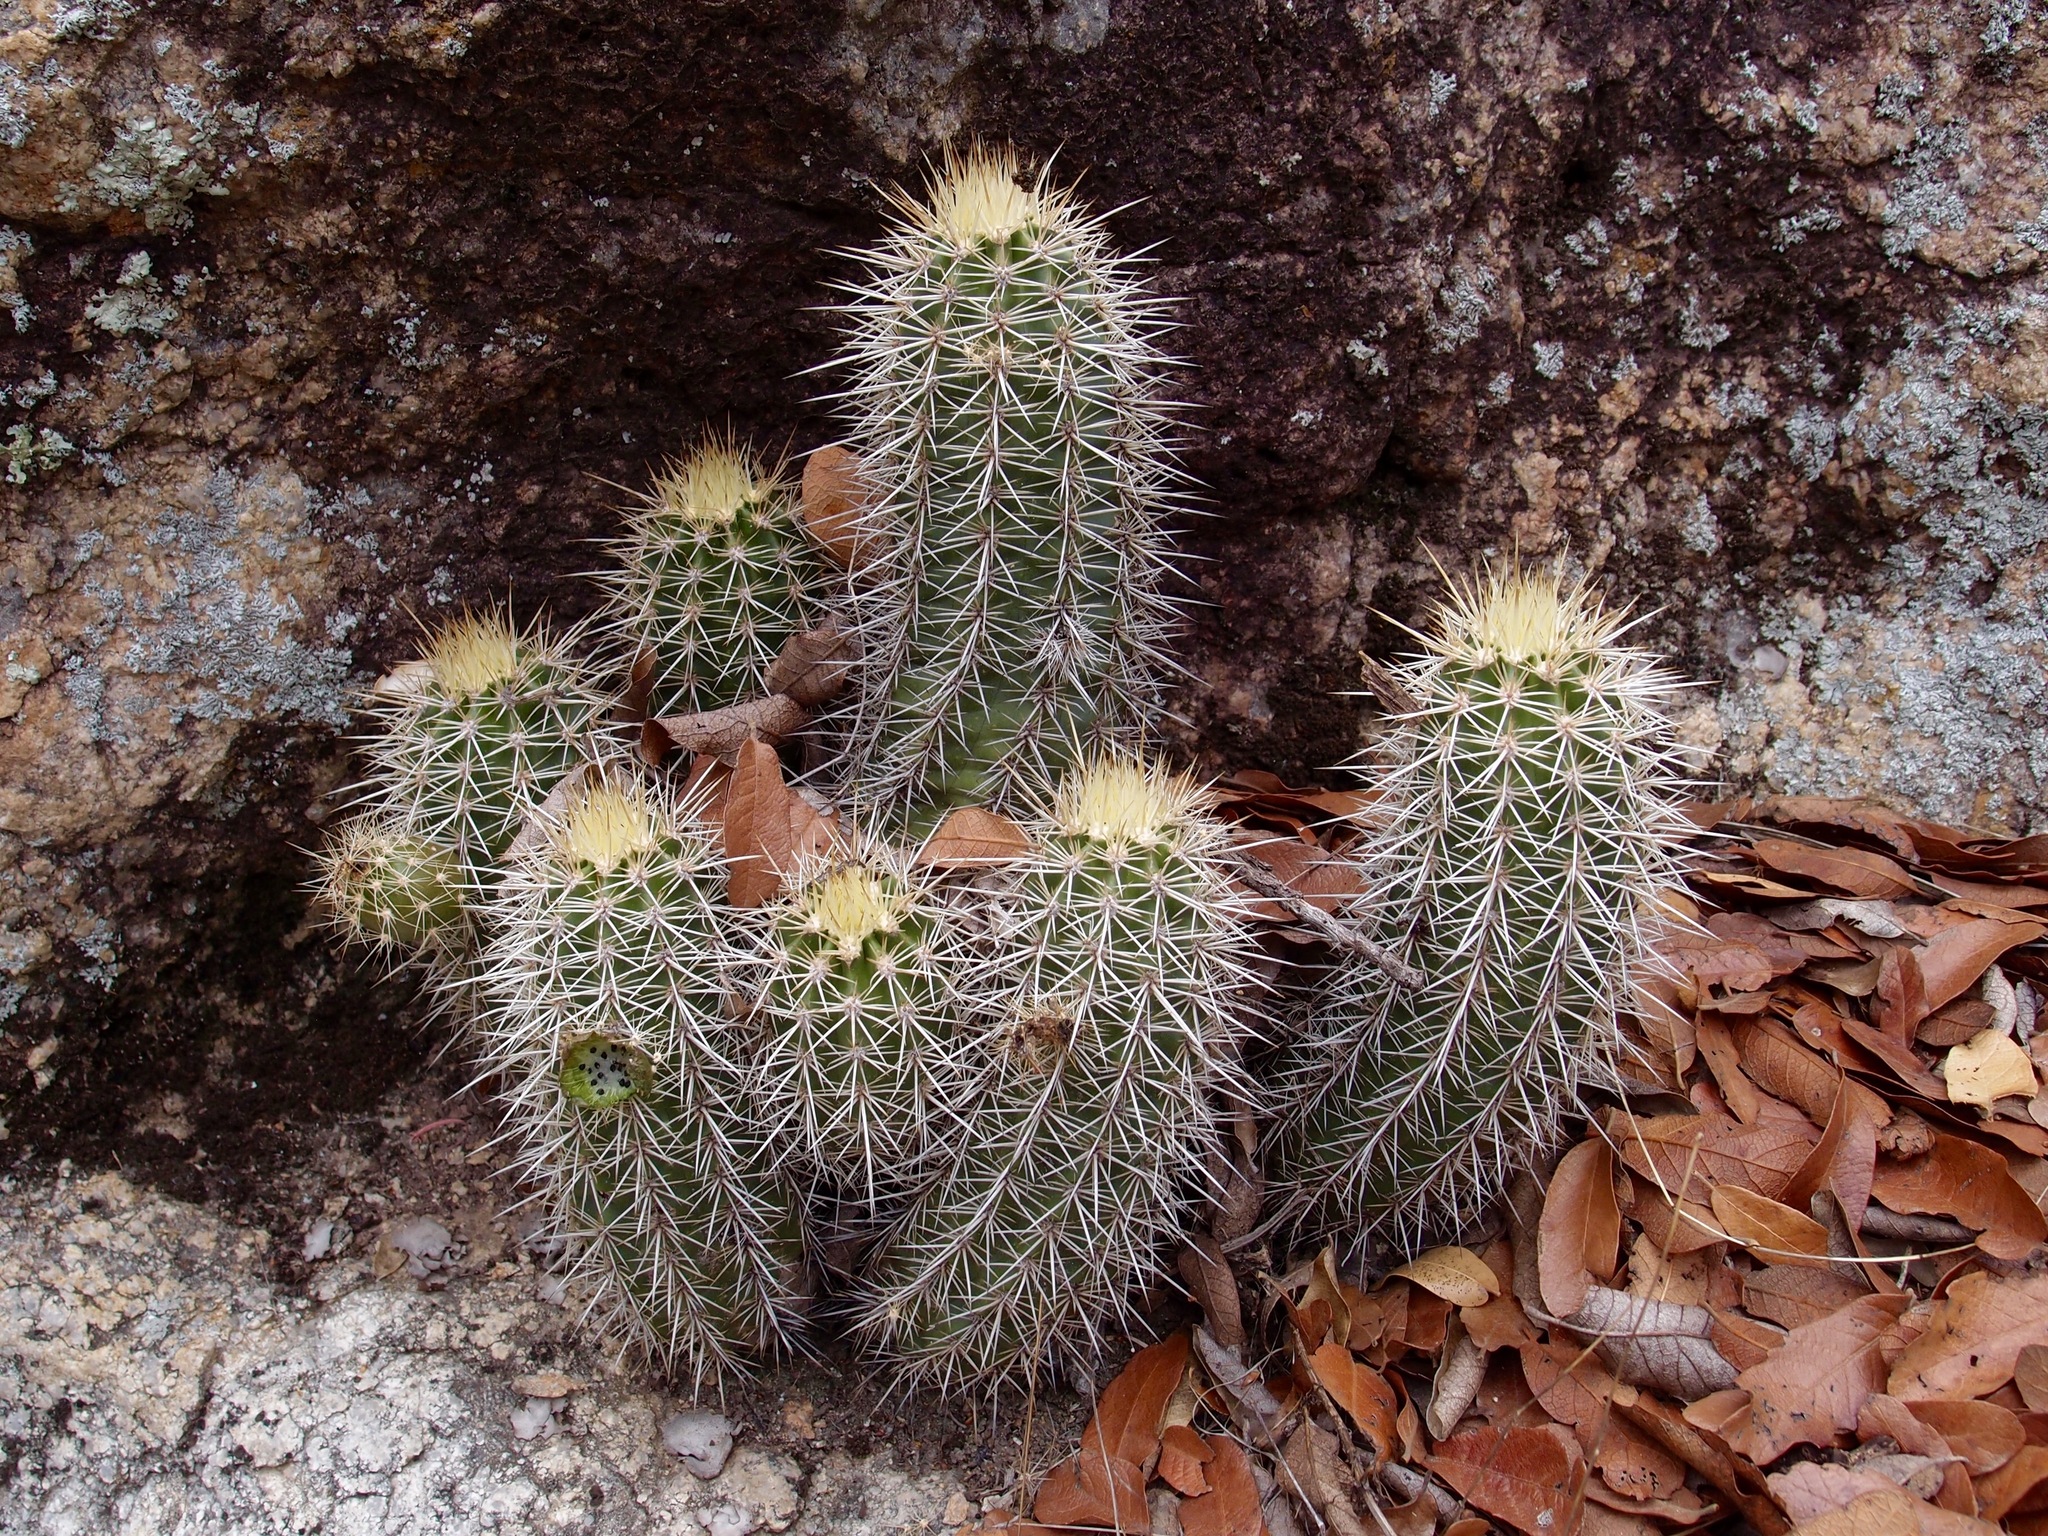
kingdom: Plantae
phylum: Tracheophyta
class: Magnoliopsida
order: Caryophyllales
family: Cactaceae
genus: Echinocereus
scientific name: Echinocereus coccineus
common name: Scarlet hedgehog cactus
